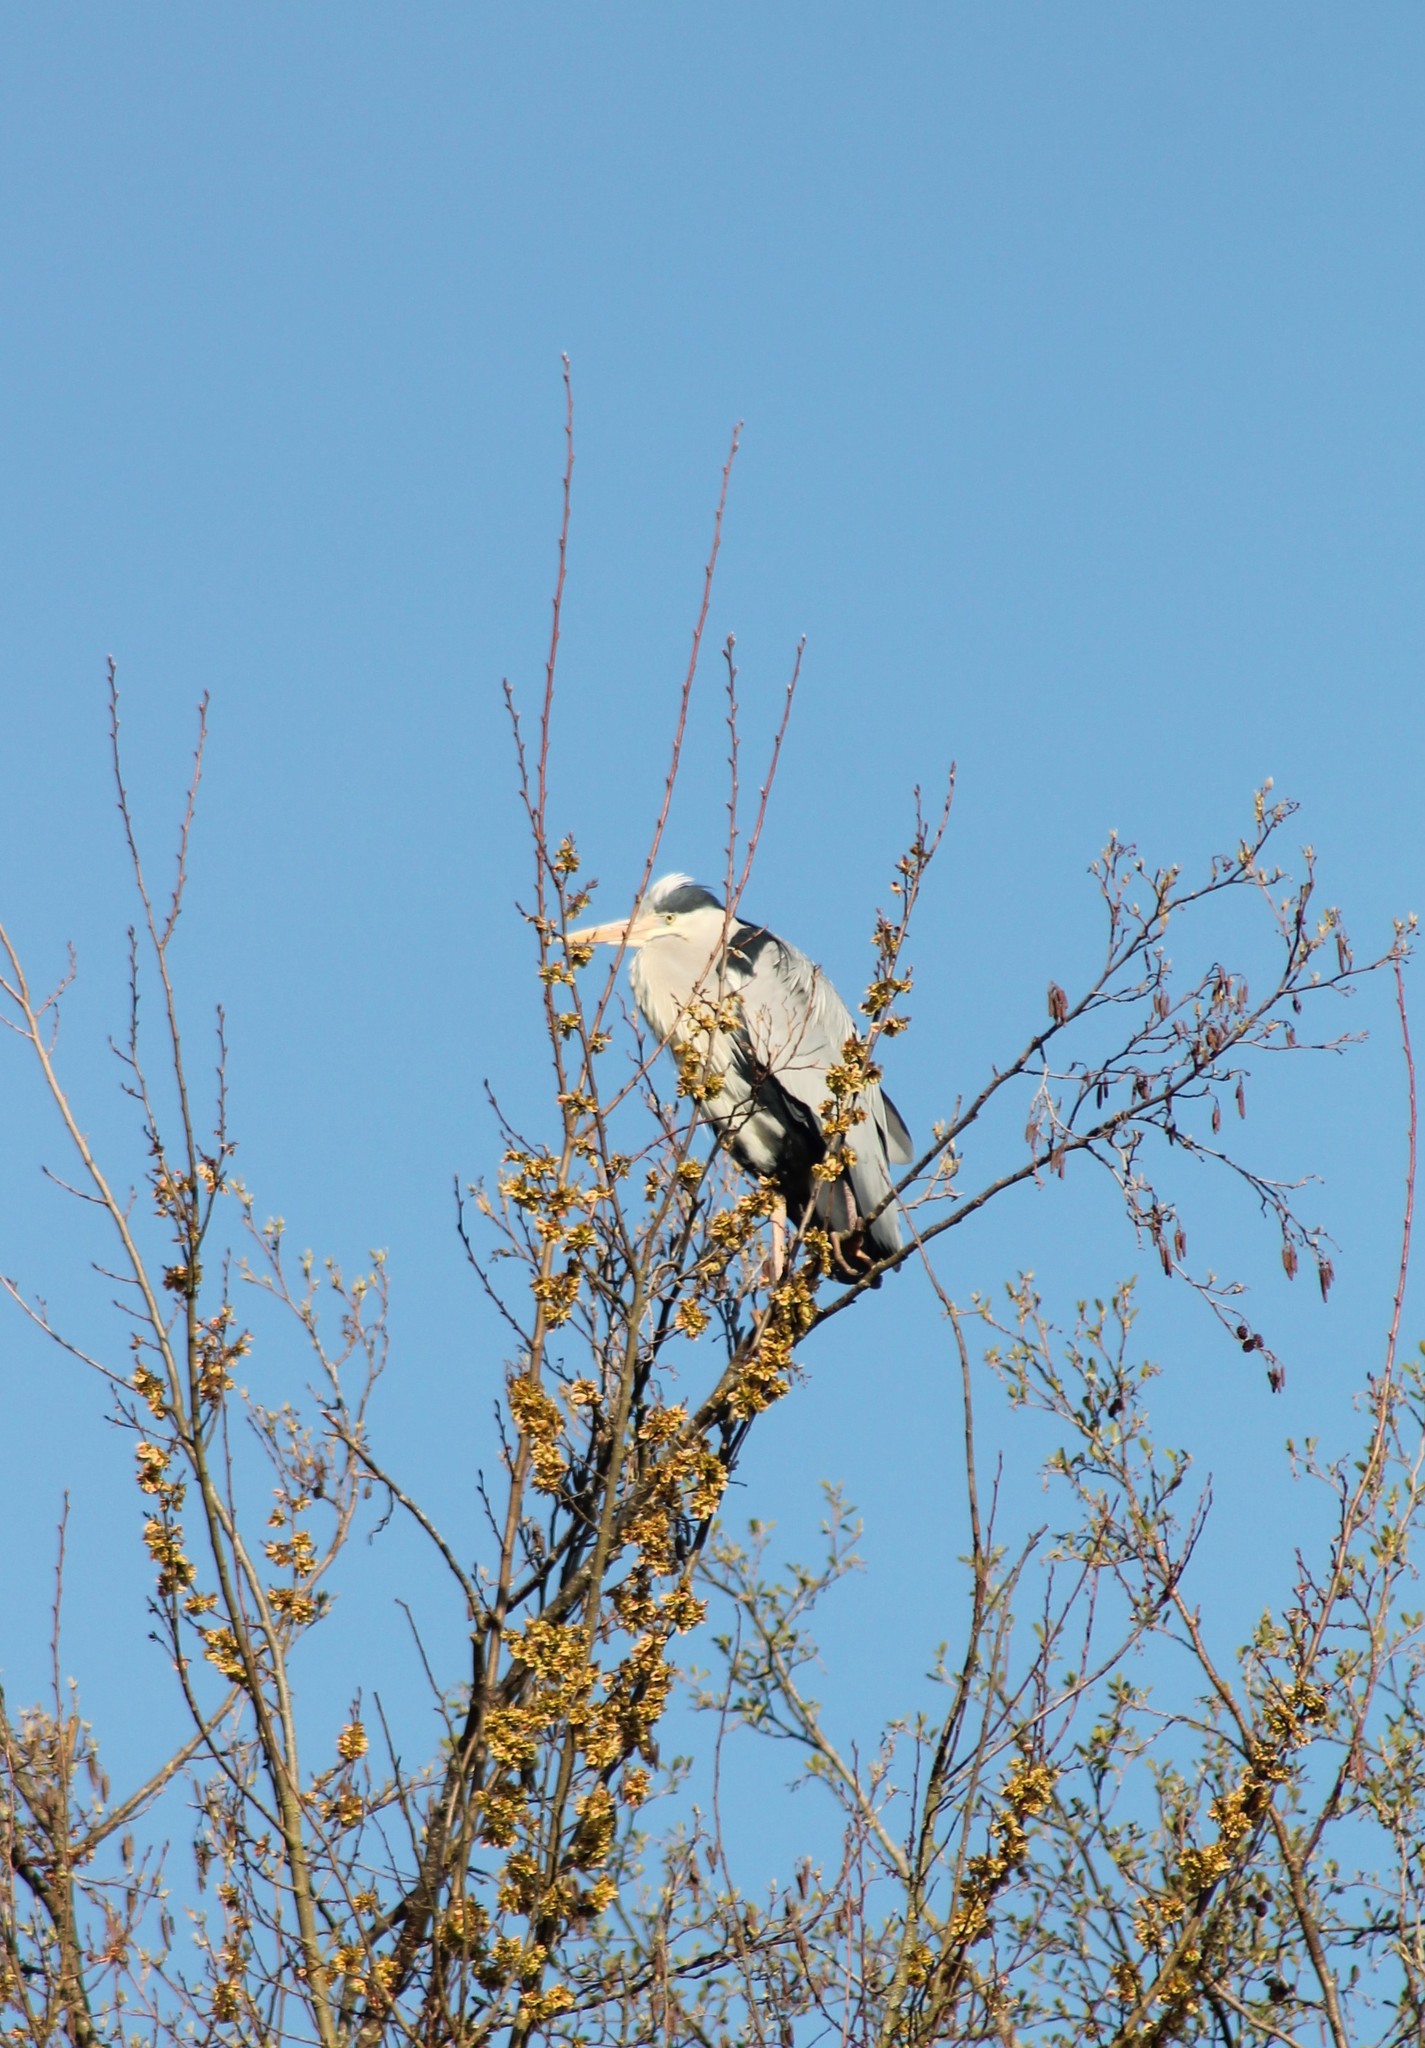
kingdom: Animalia
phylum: Chordata
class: Aves
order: Pelecaniformes
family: Ardeidae
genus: Ardea
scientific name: Ardea cinerea
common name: Grey heron
